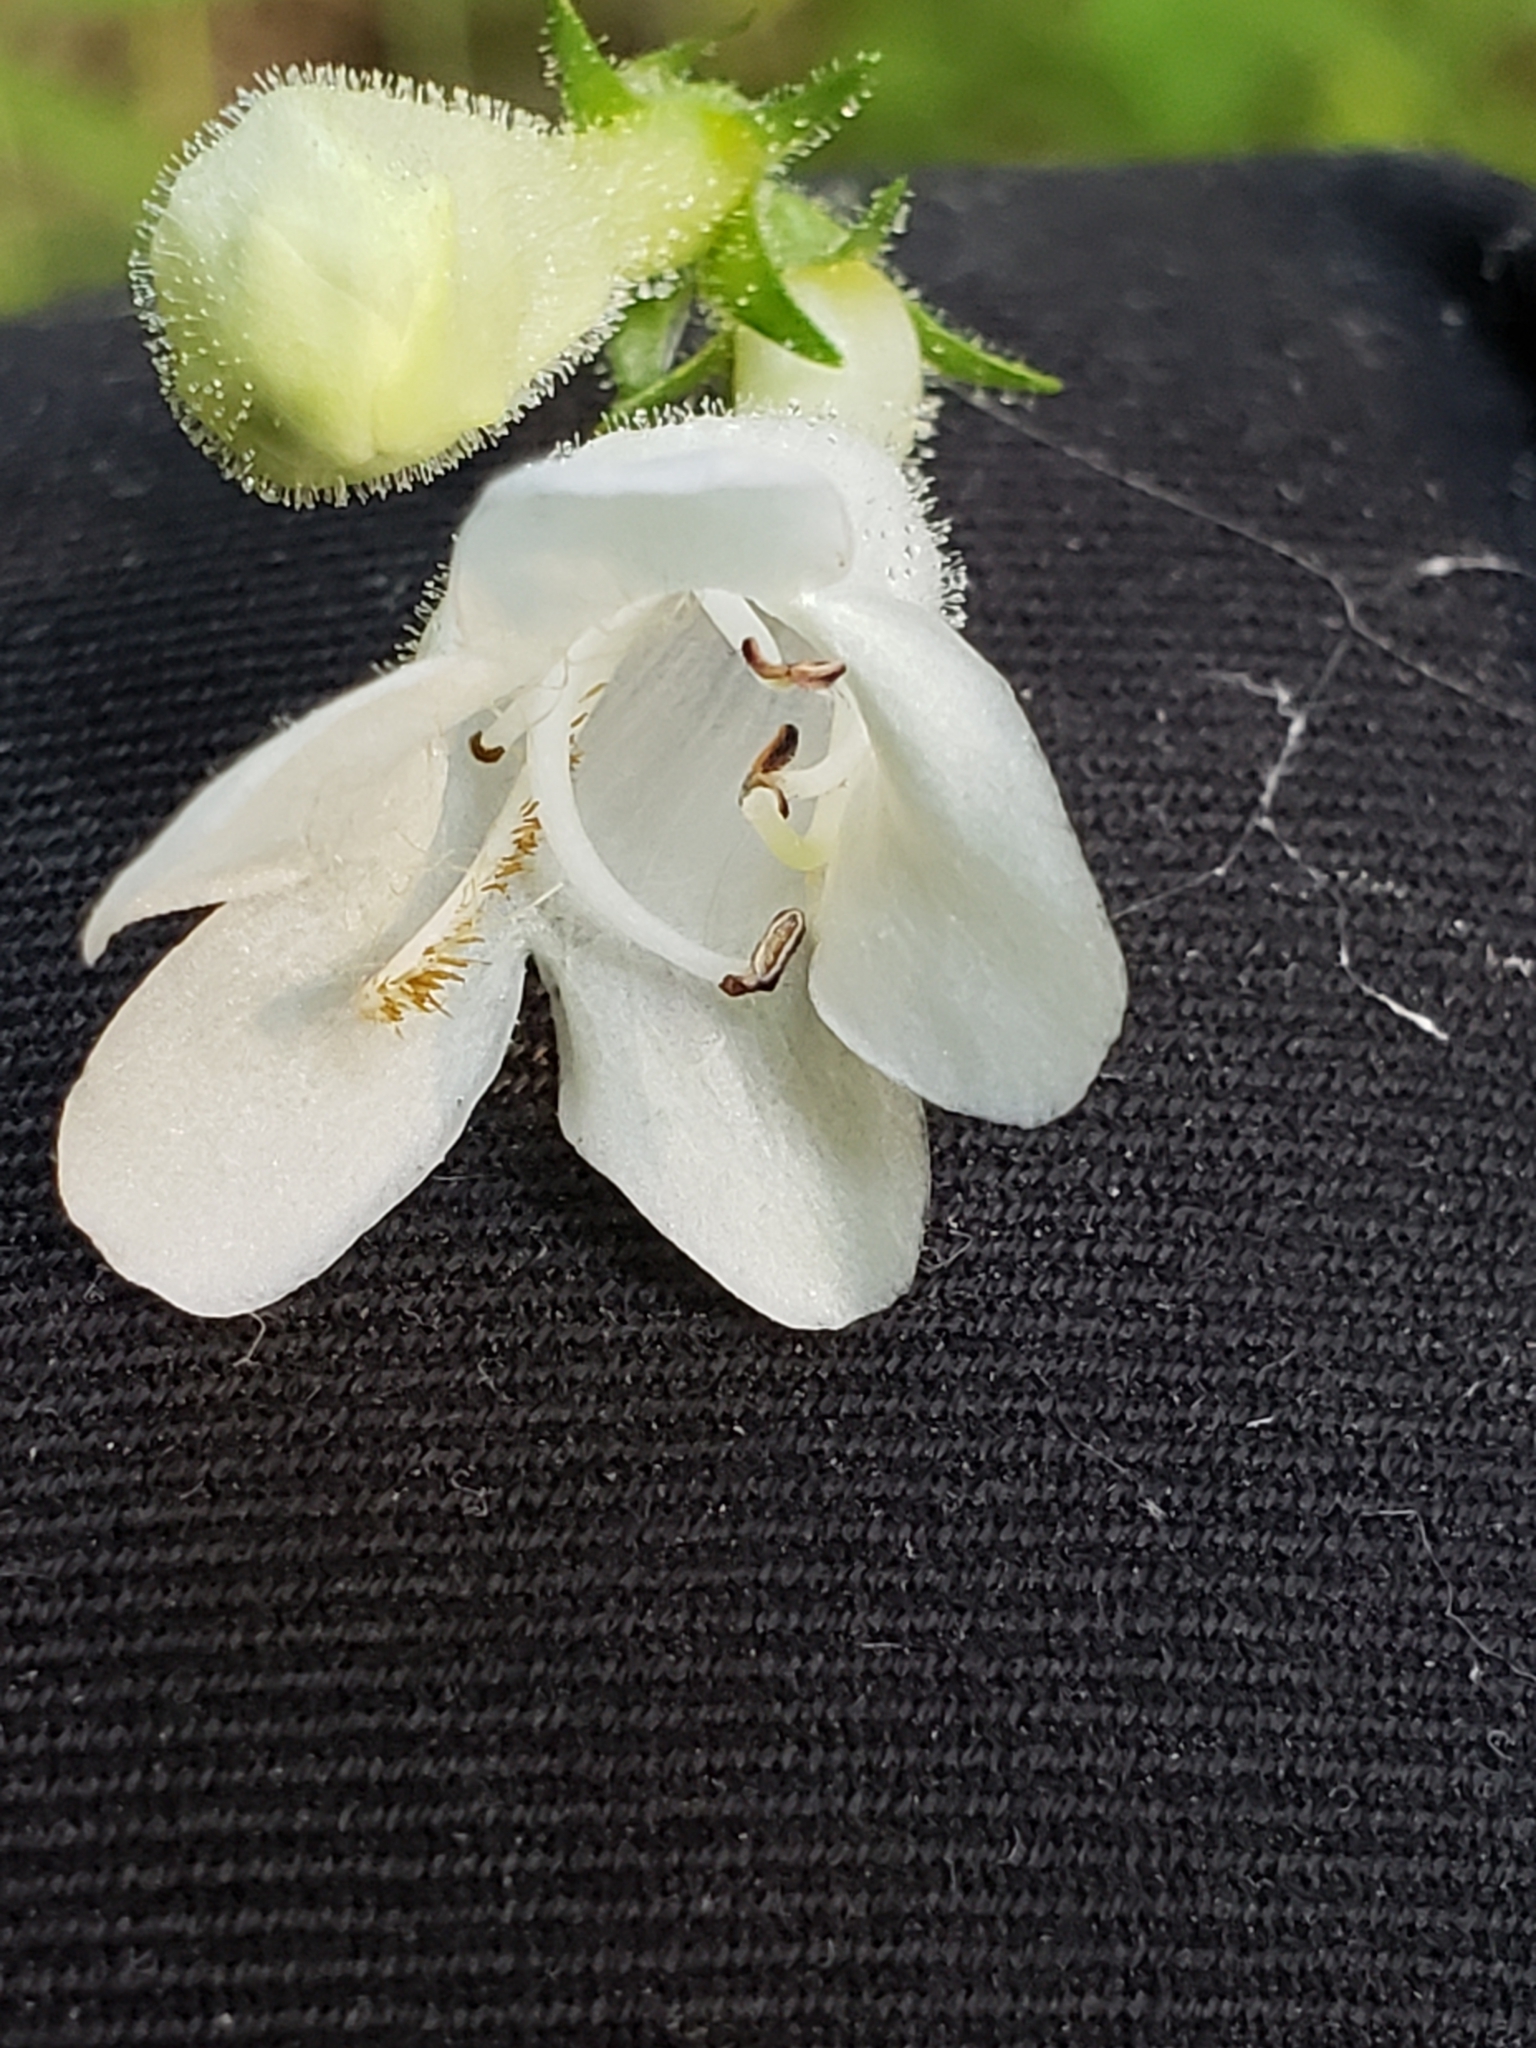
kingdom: Plantae
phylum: Tracheophyta
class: Magnoliopsida
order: Lamiales
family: Plantaginaceae
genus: Penstemon
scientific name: Penstemon digitalis
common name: Foxglove beardtongue
